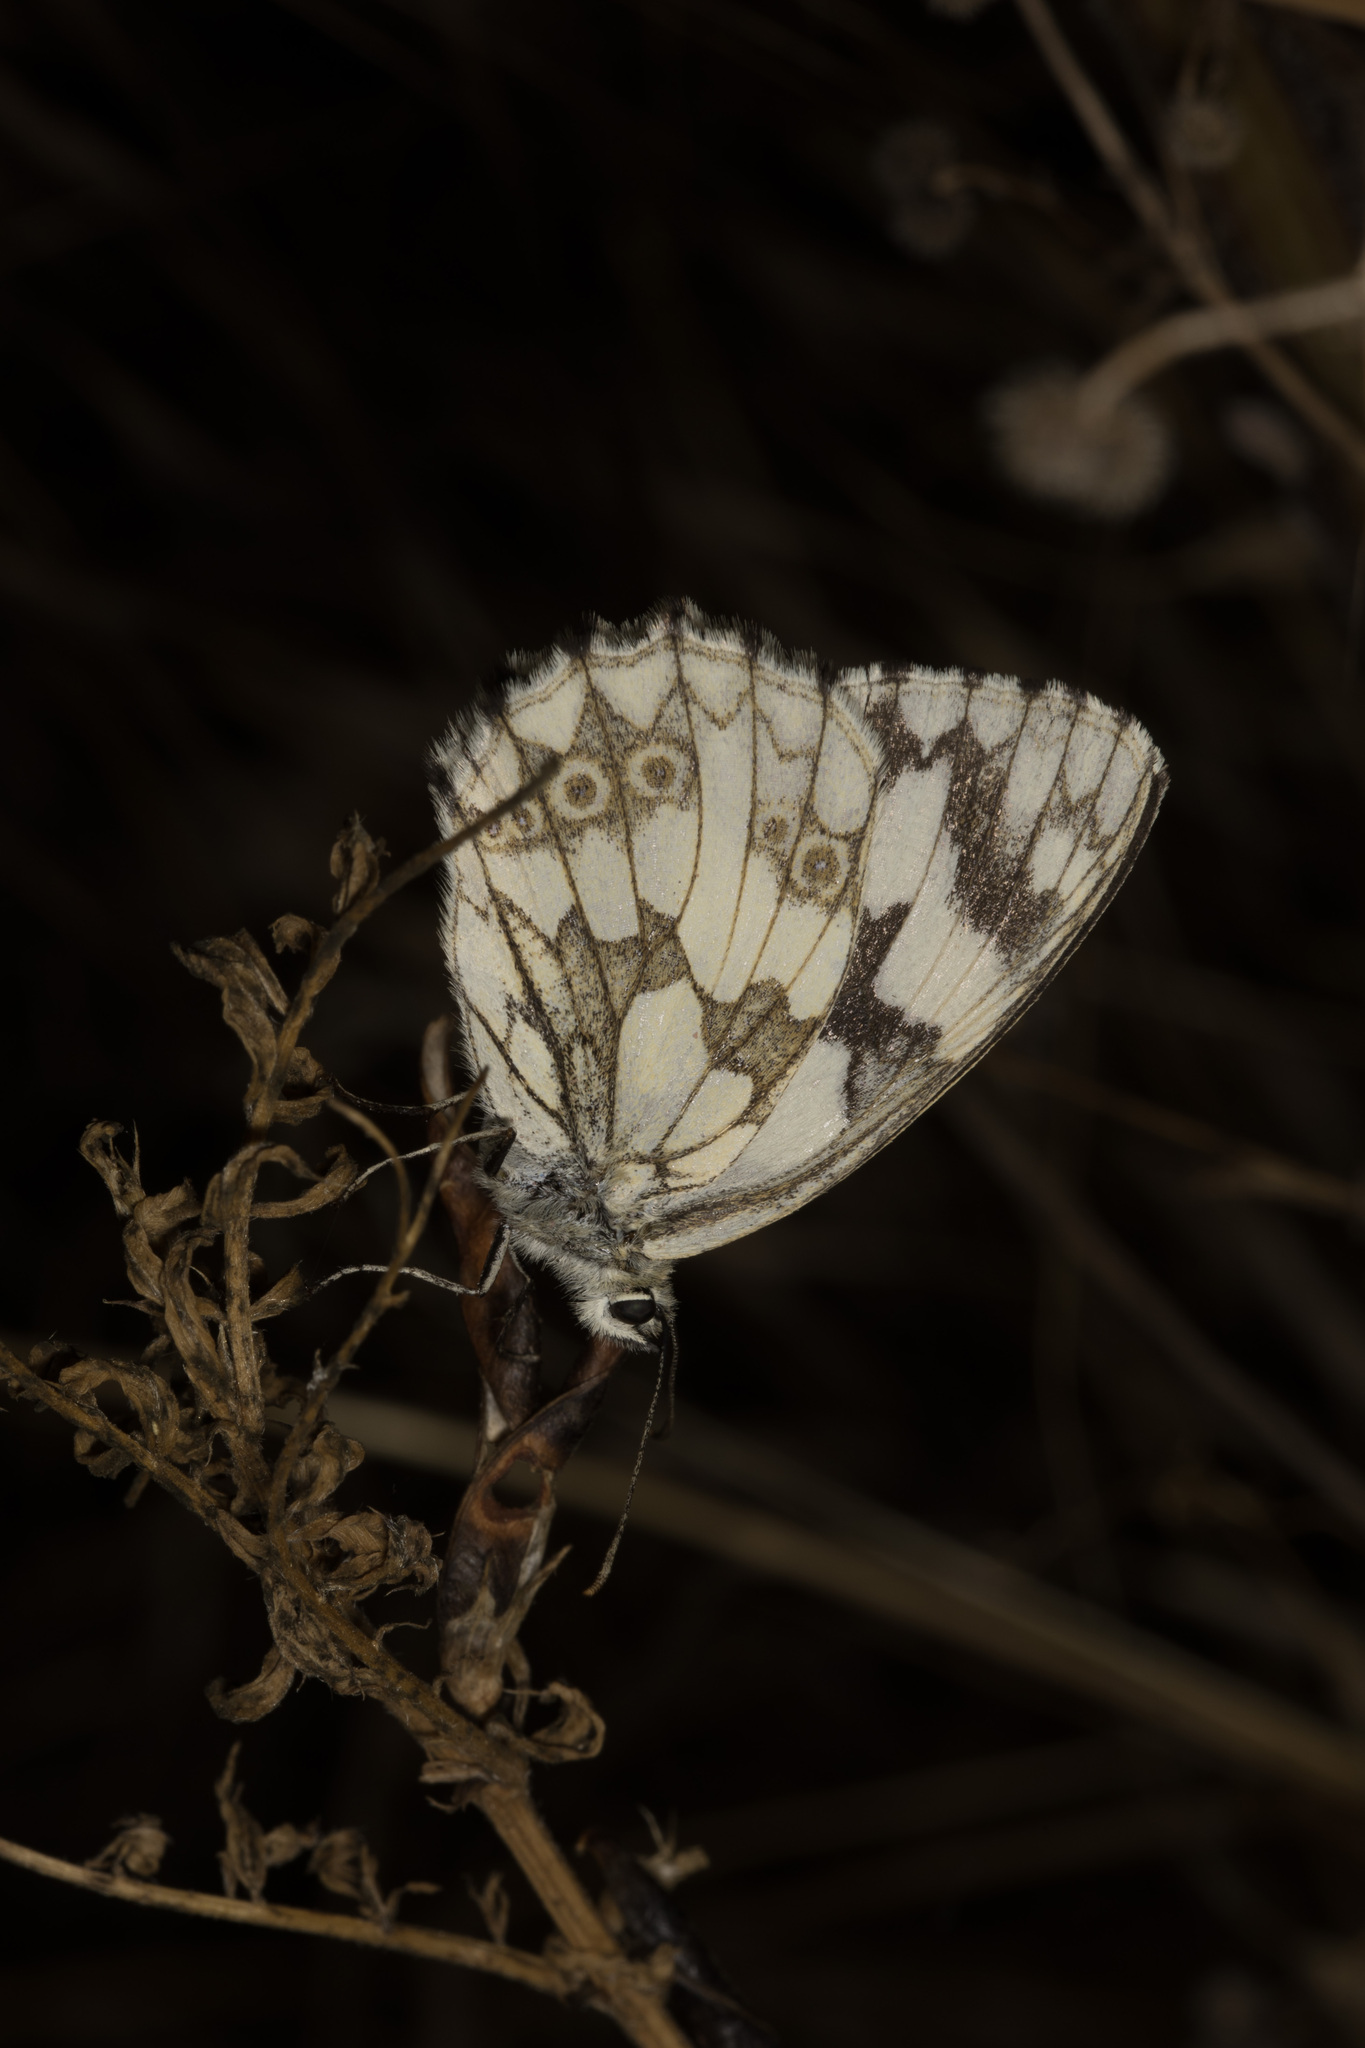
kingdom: Animalia
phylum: Arthropoda
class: Insecta
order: Lepidoptera
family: Nymphalidae
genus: Melanargia
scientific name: Melanargia galathea
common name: Marbled white
